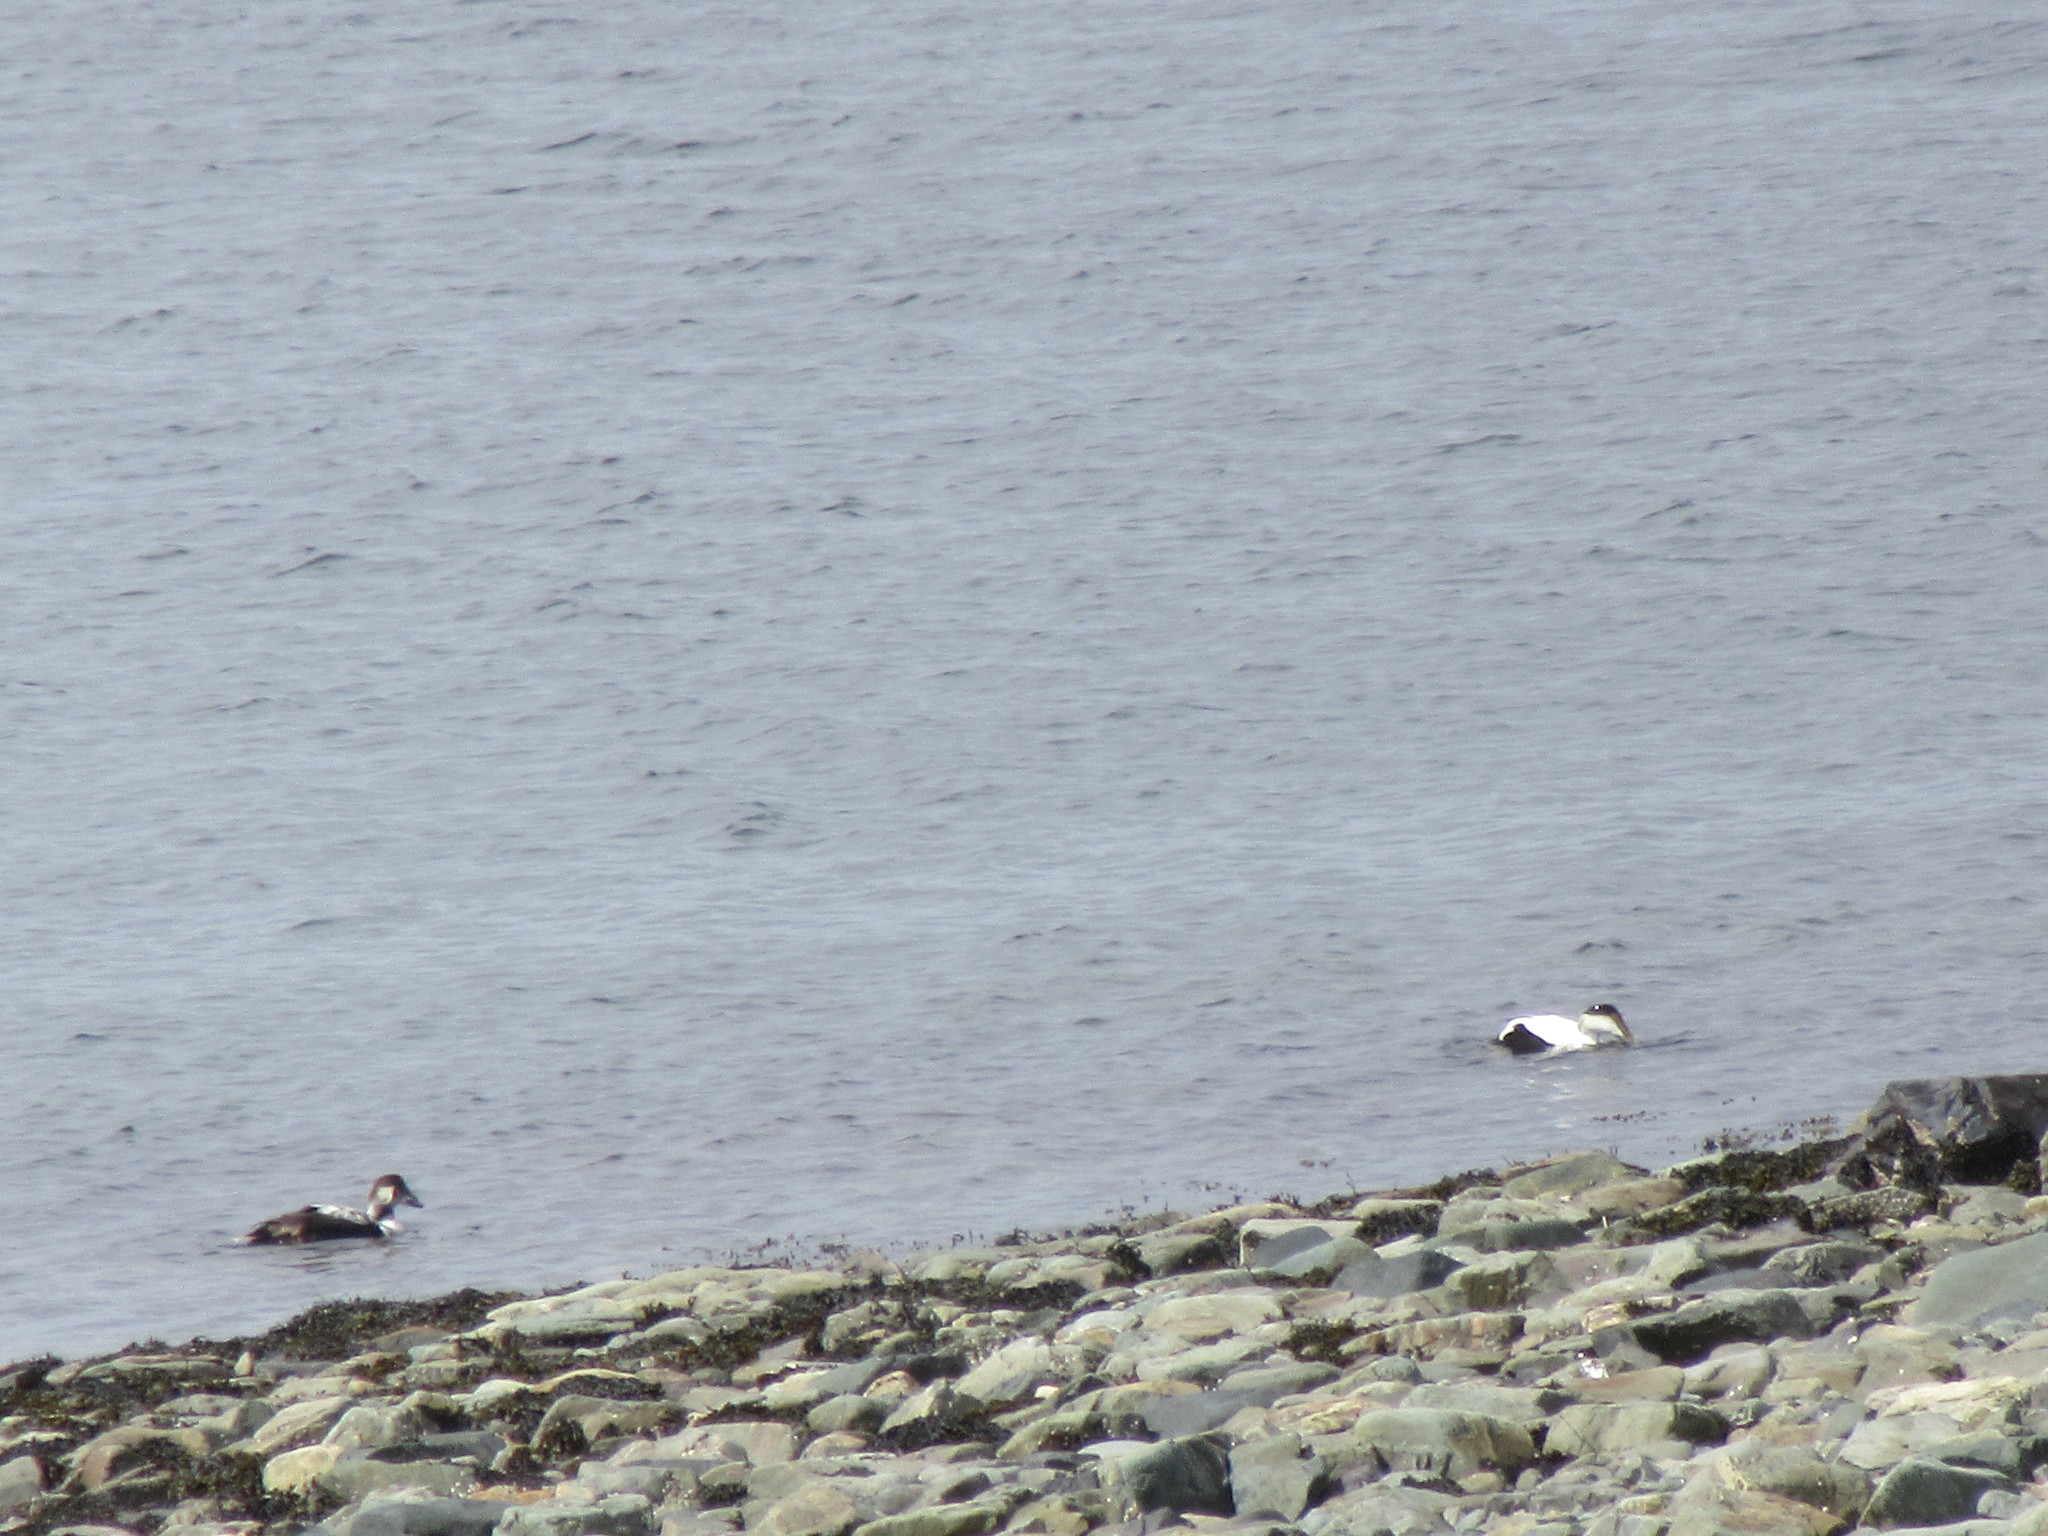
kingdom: Animalia
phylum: Chordata
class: Aves
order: Anseriformes
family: Anatidae
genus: Somateria
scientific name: Somateria mollissima
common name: Common eider
